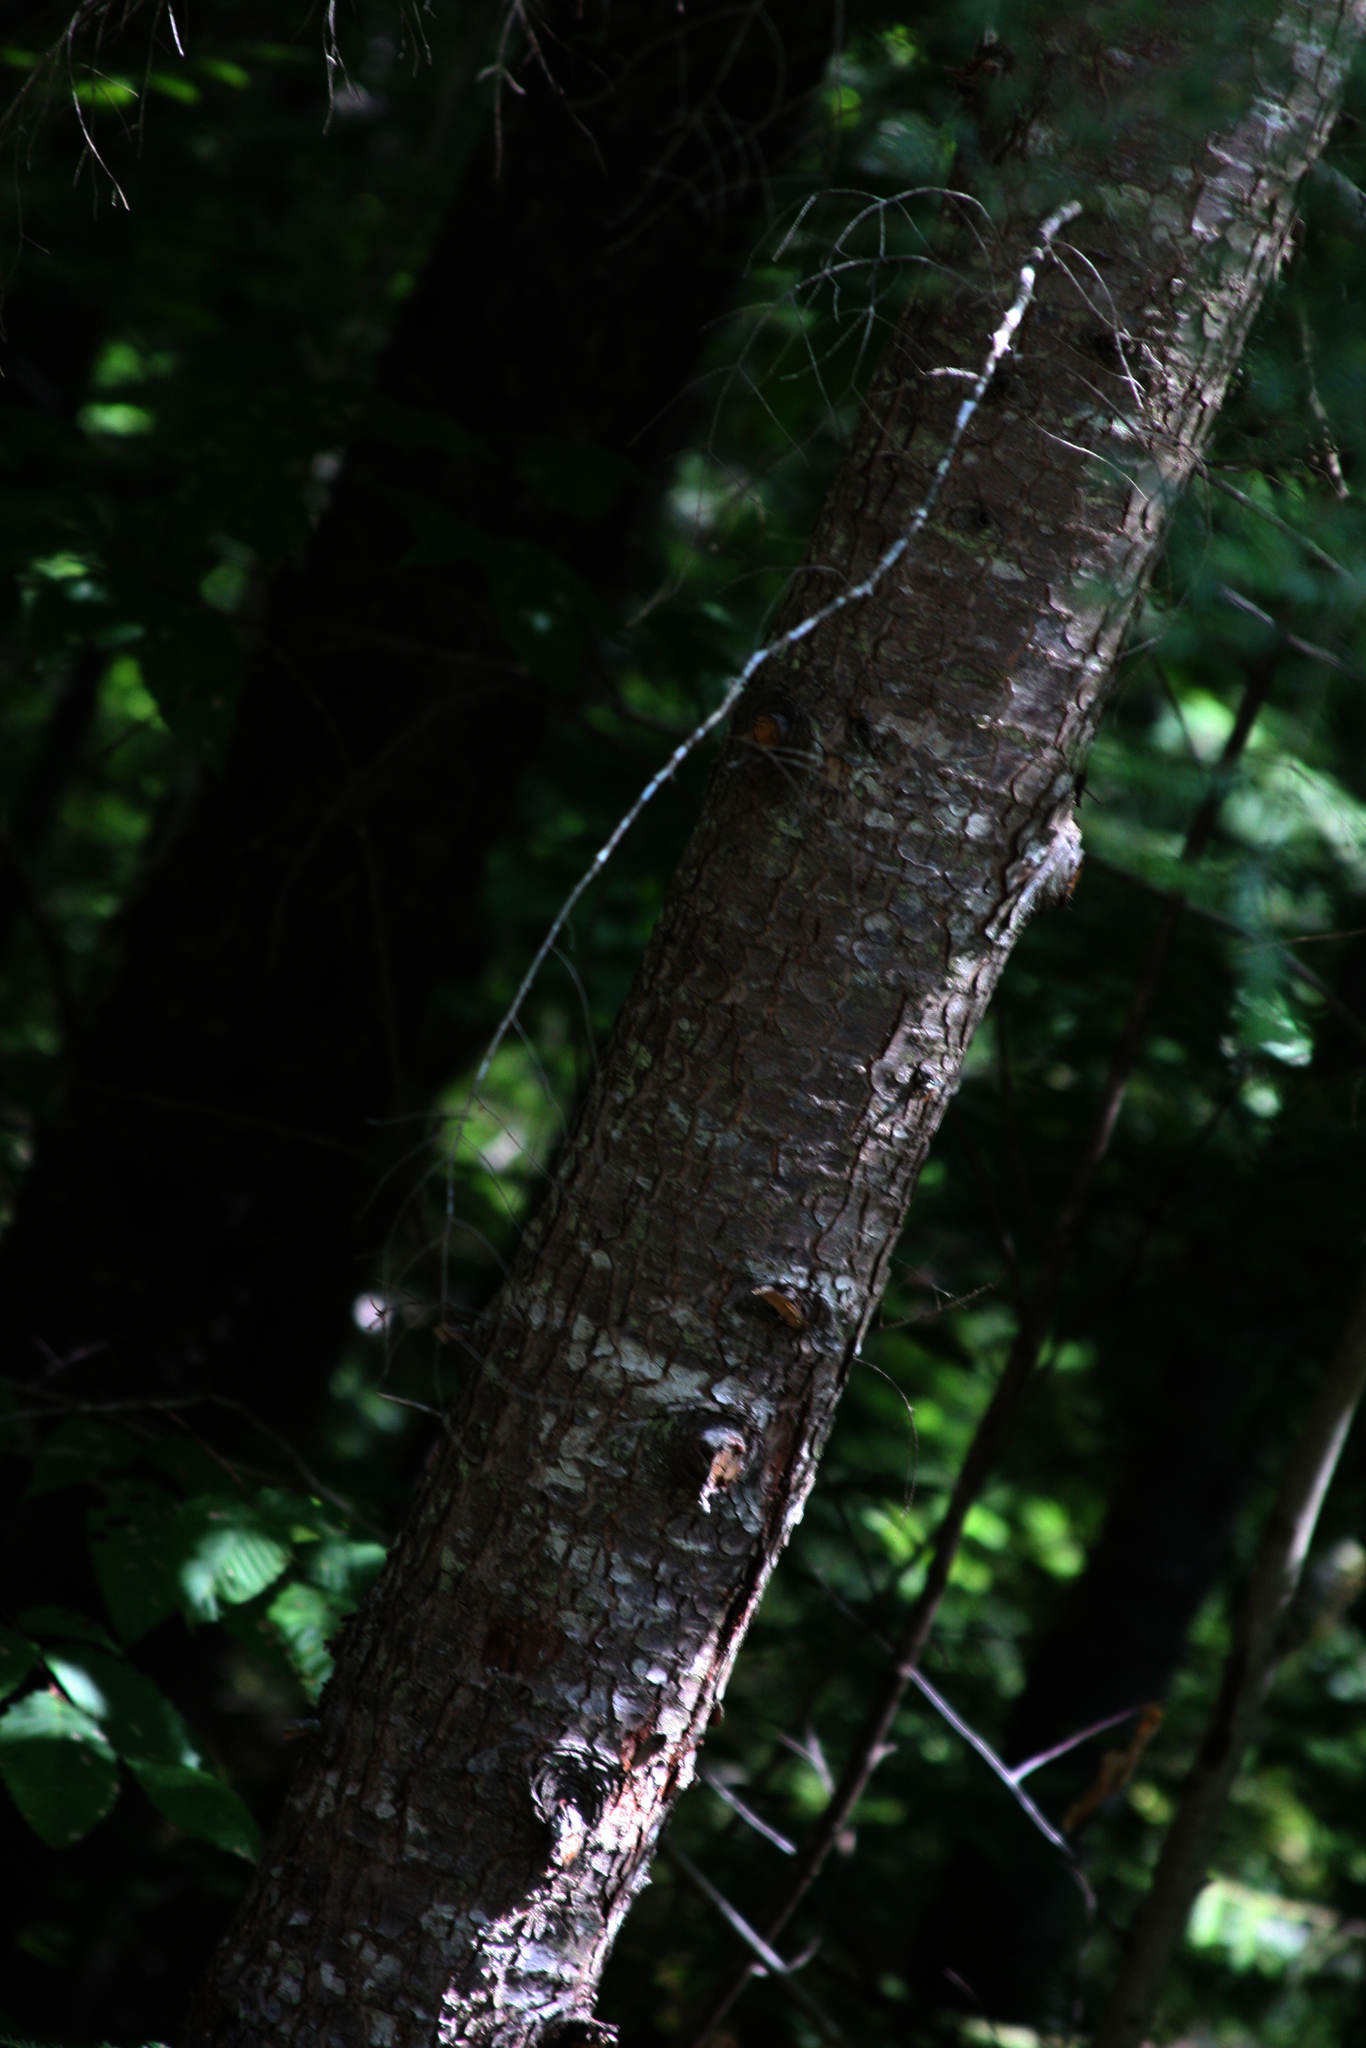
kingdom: Plantae
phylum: Tracheophyta
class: Pinopsida
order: Pinales
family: Pinaceae
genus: Tsuga
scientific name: Tsuga canadensis
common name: Eastern hemlock
